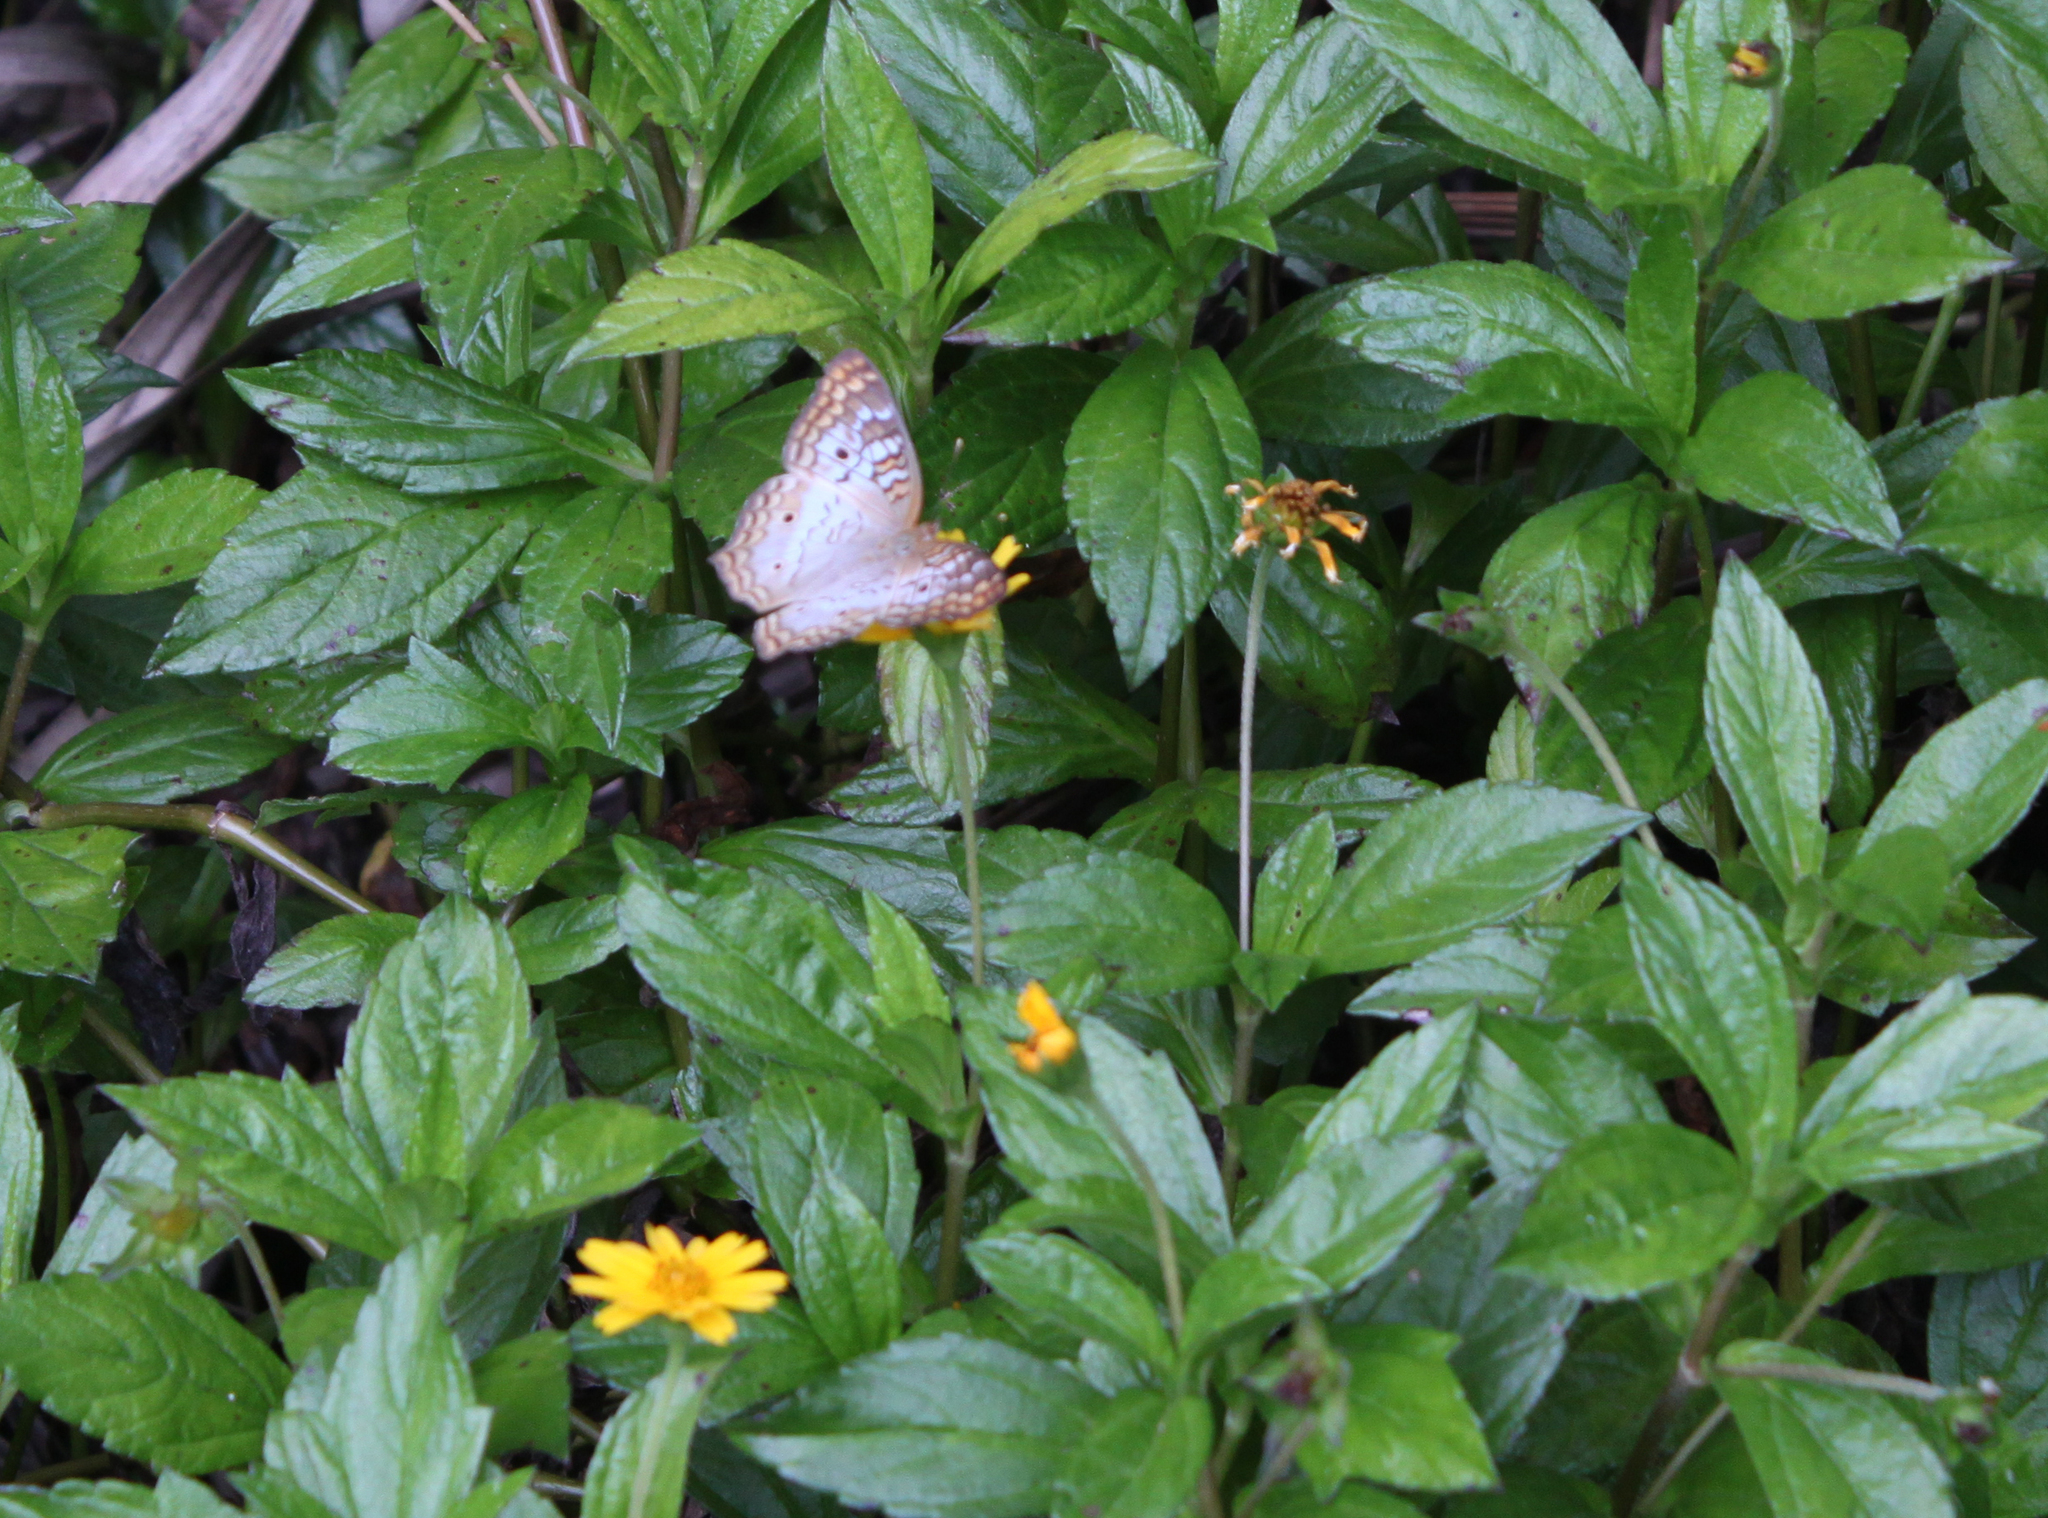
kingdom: Animalia
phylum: Arthropoda
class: Insecta
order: Lepidoptera
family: Nymphalidae
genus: Anartia
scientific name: Anartia jatrophae
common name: White peacock
